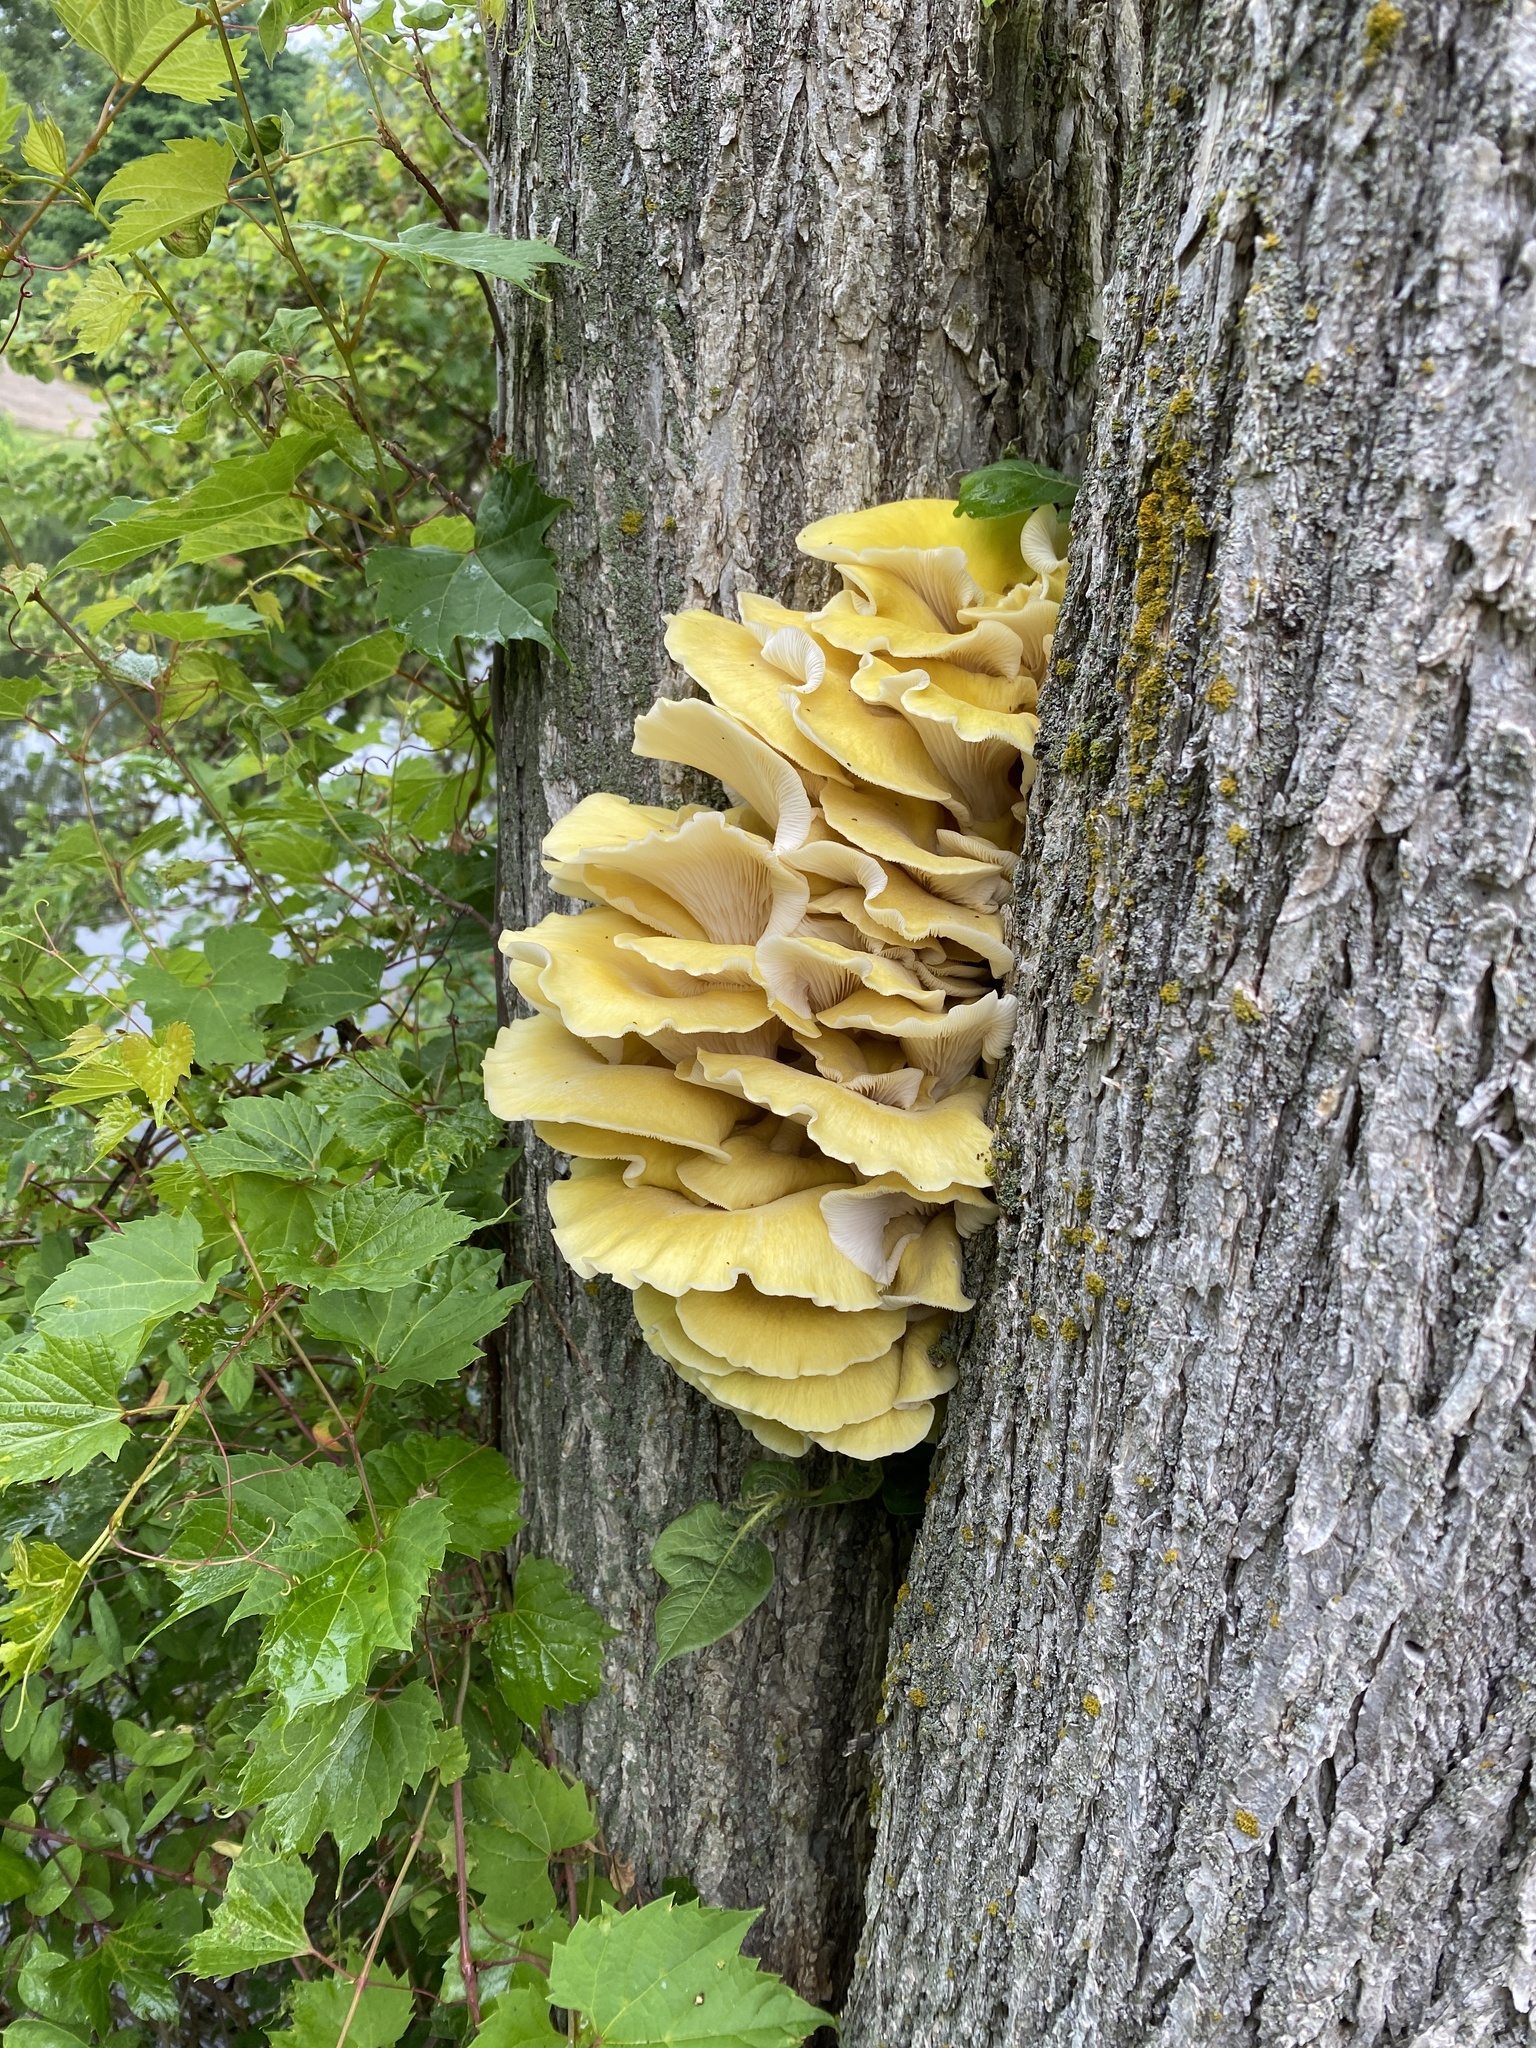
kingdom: Fungi
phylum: Basidiomycota
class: Agaricomycetes
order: Agaricales
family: Pleurotaceae
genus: Pleurotus
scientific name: Pleurotus citrinopileatus
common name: Golden oyster mushroom
